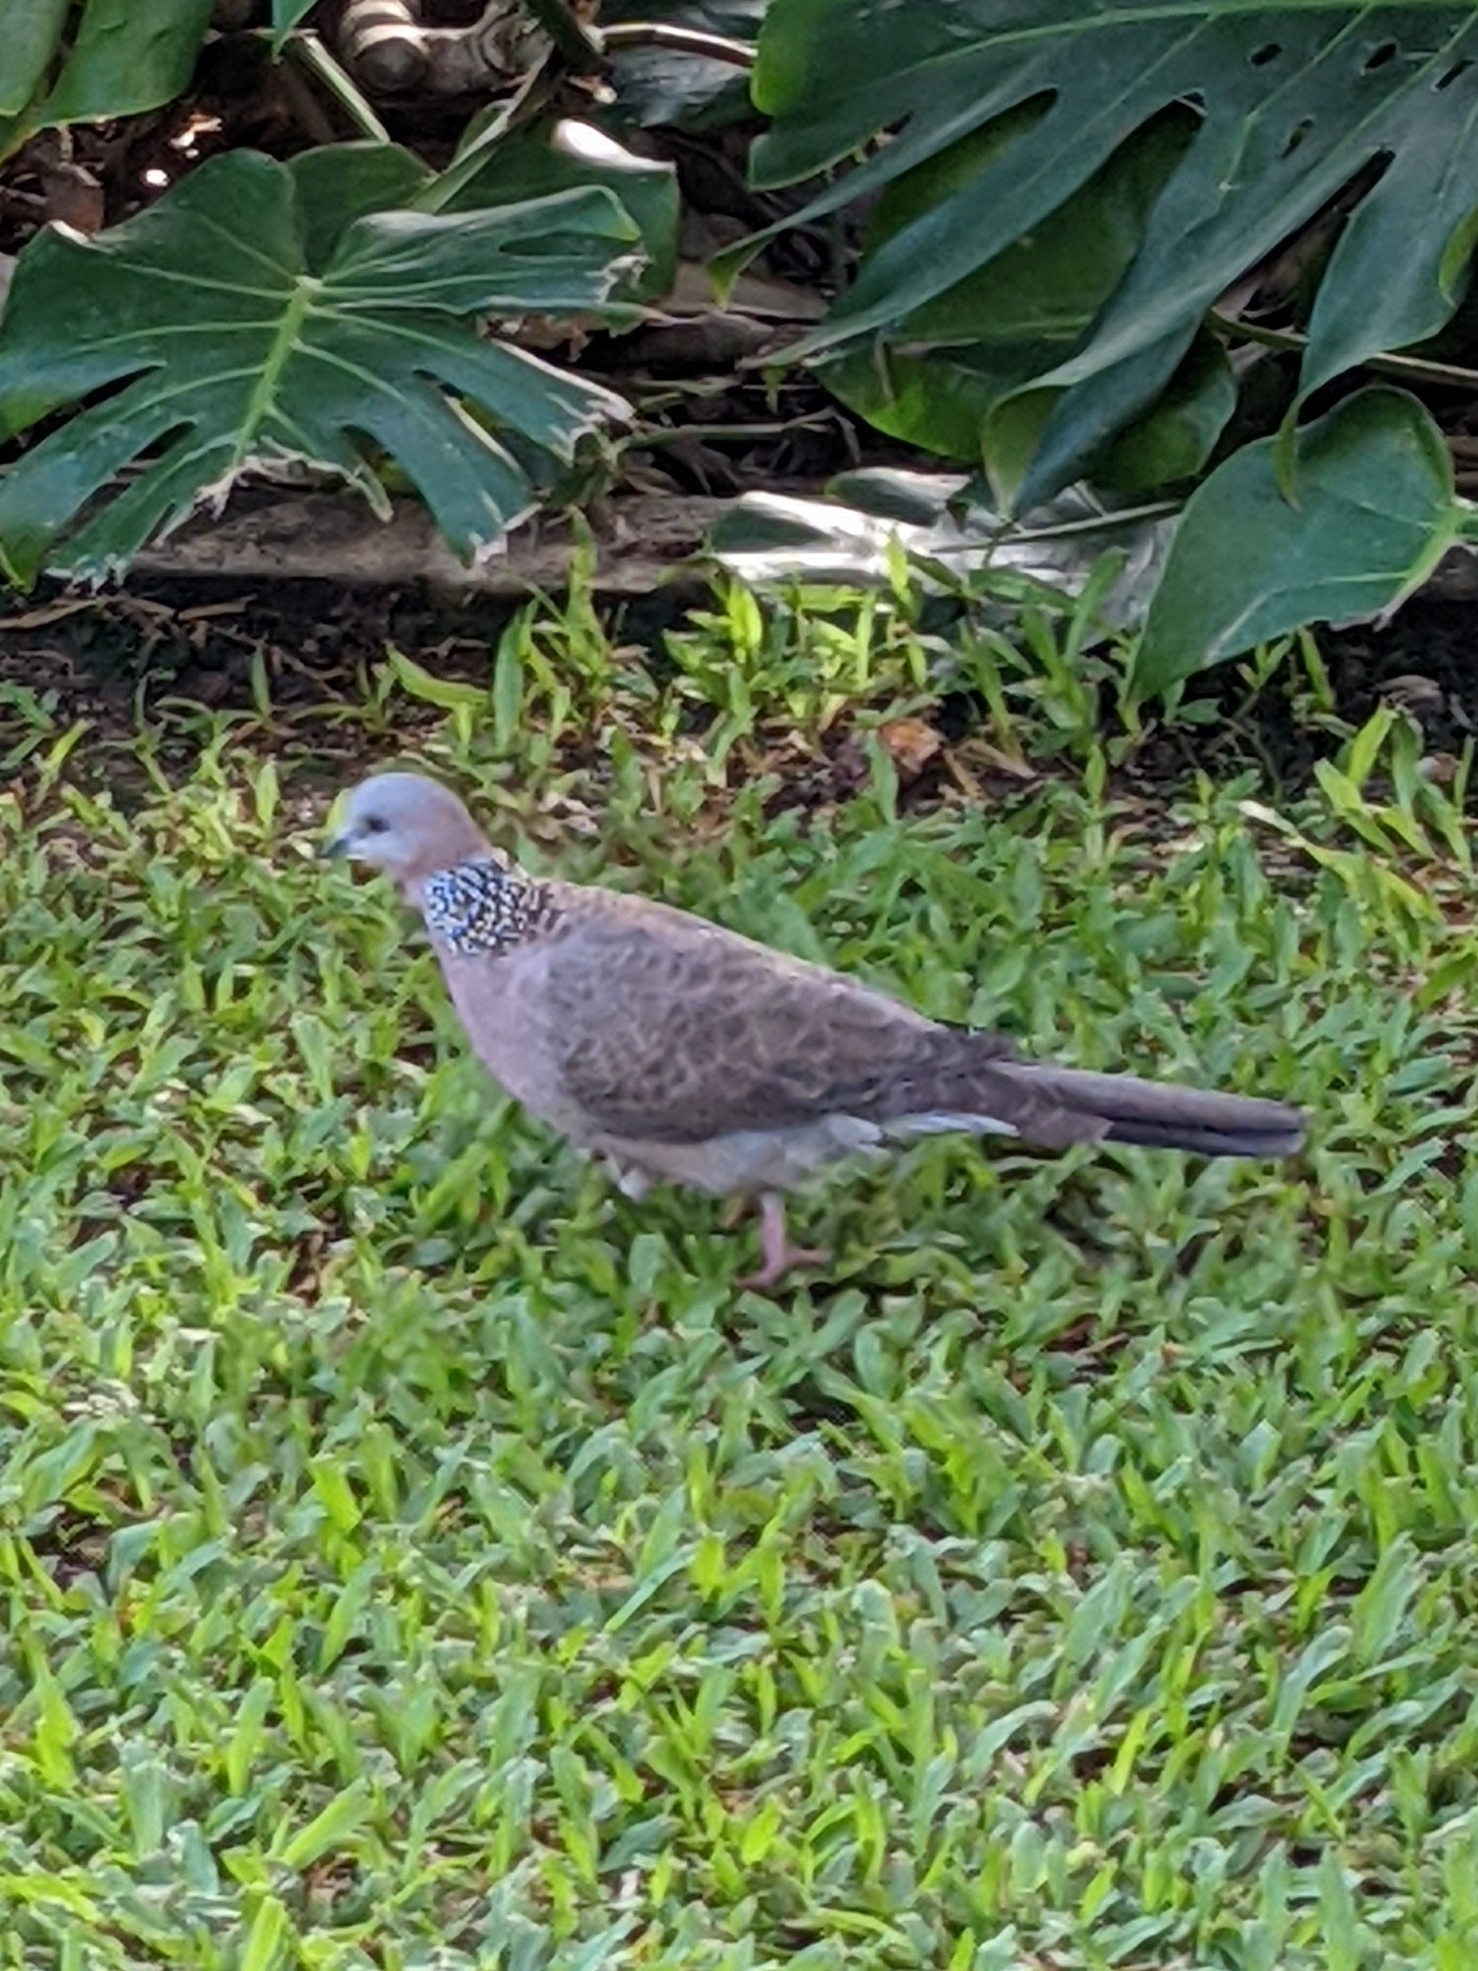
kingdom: Animalia
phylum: Chordata
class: Aves
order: Columbiformes
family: Columbidae
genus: Spilopelia
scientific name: Spilopelia chinensis
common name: Spotted dove
